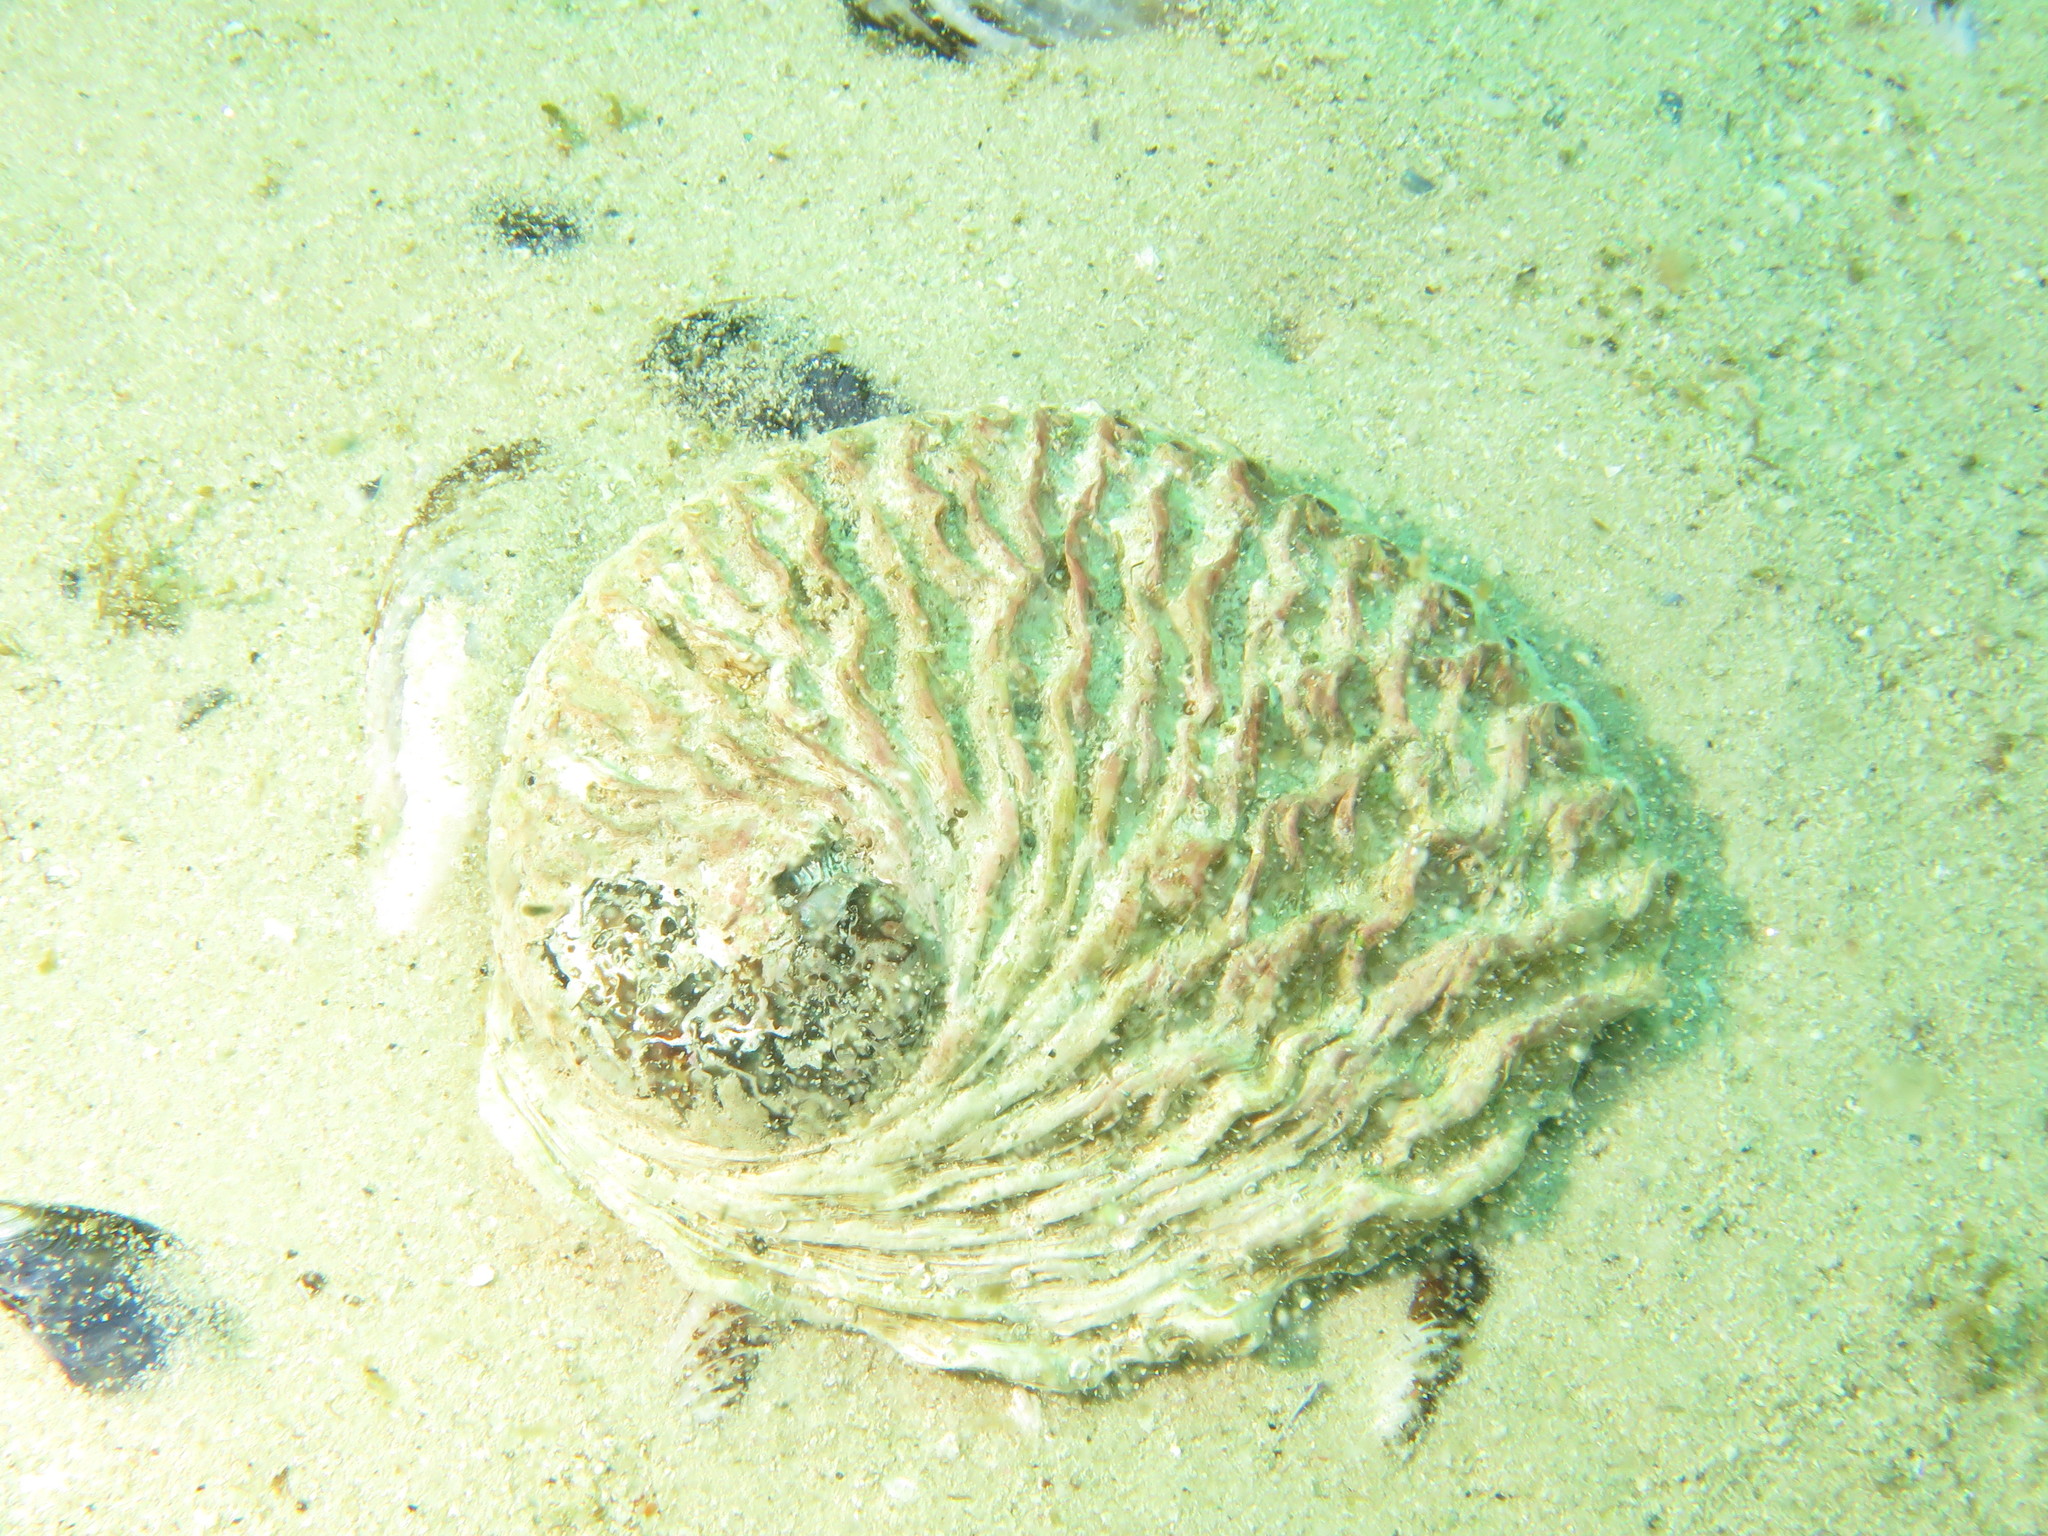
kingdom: Animalia
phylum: Mollusca
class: Gastropoda
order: Lepetellida
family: Haliotidae
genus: Haliotis
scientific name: Haliotis midae
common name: Perlemoen
